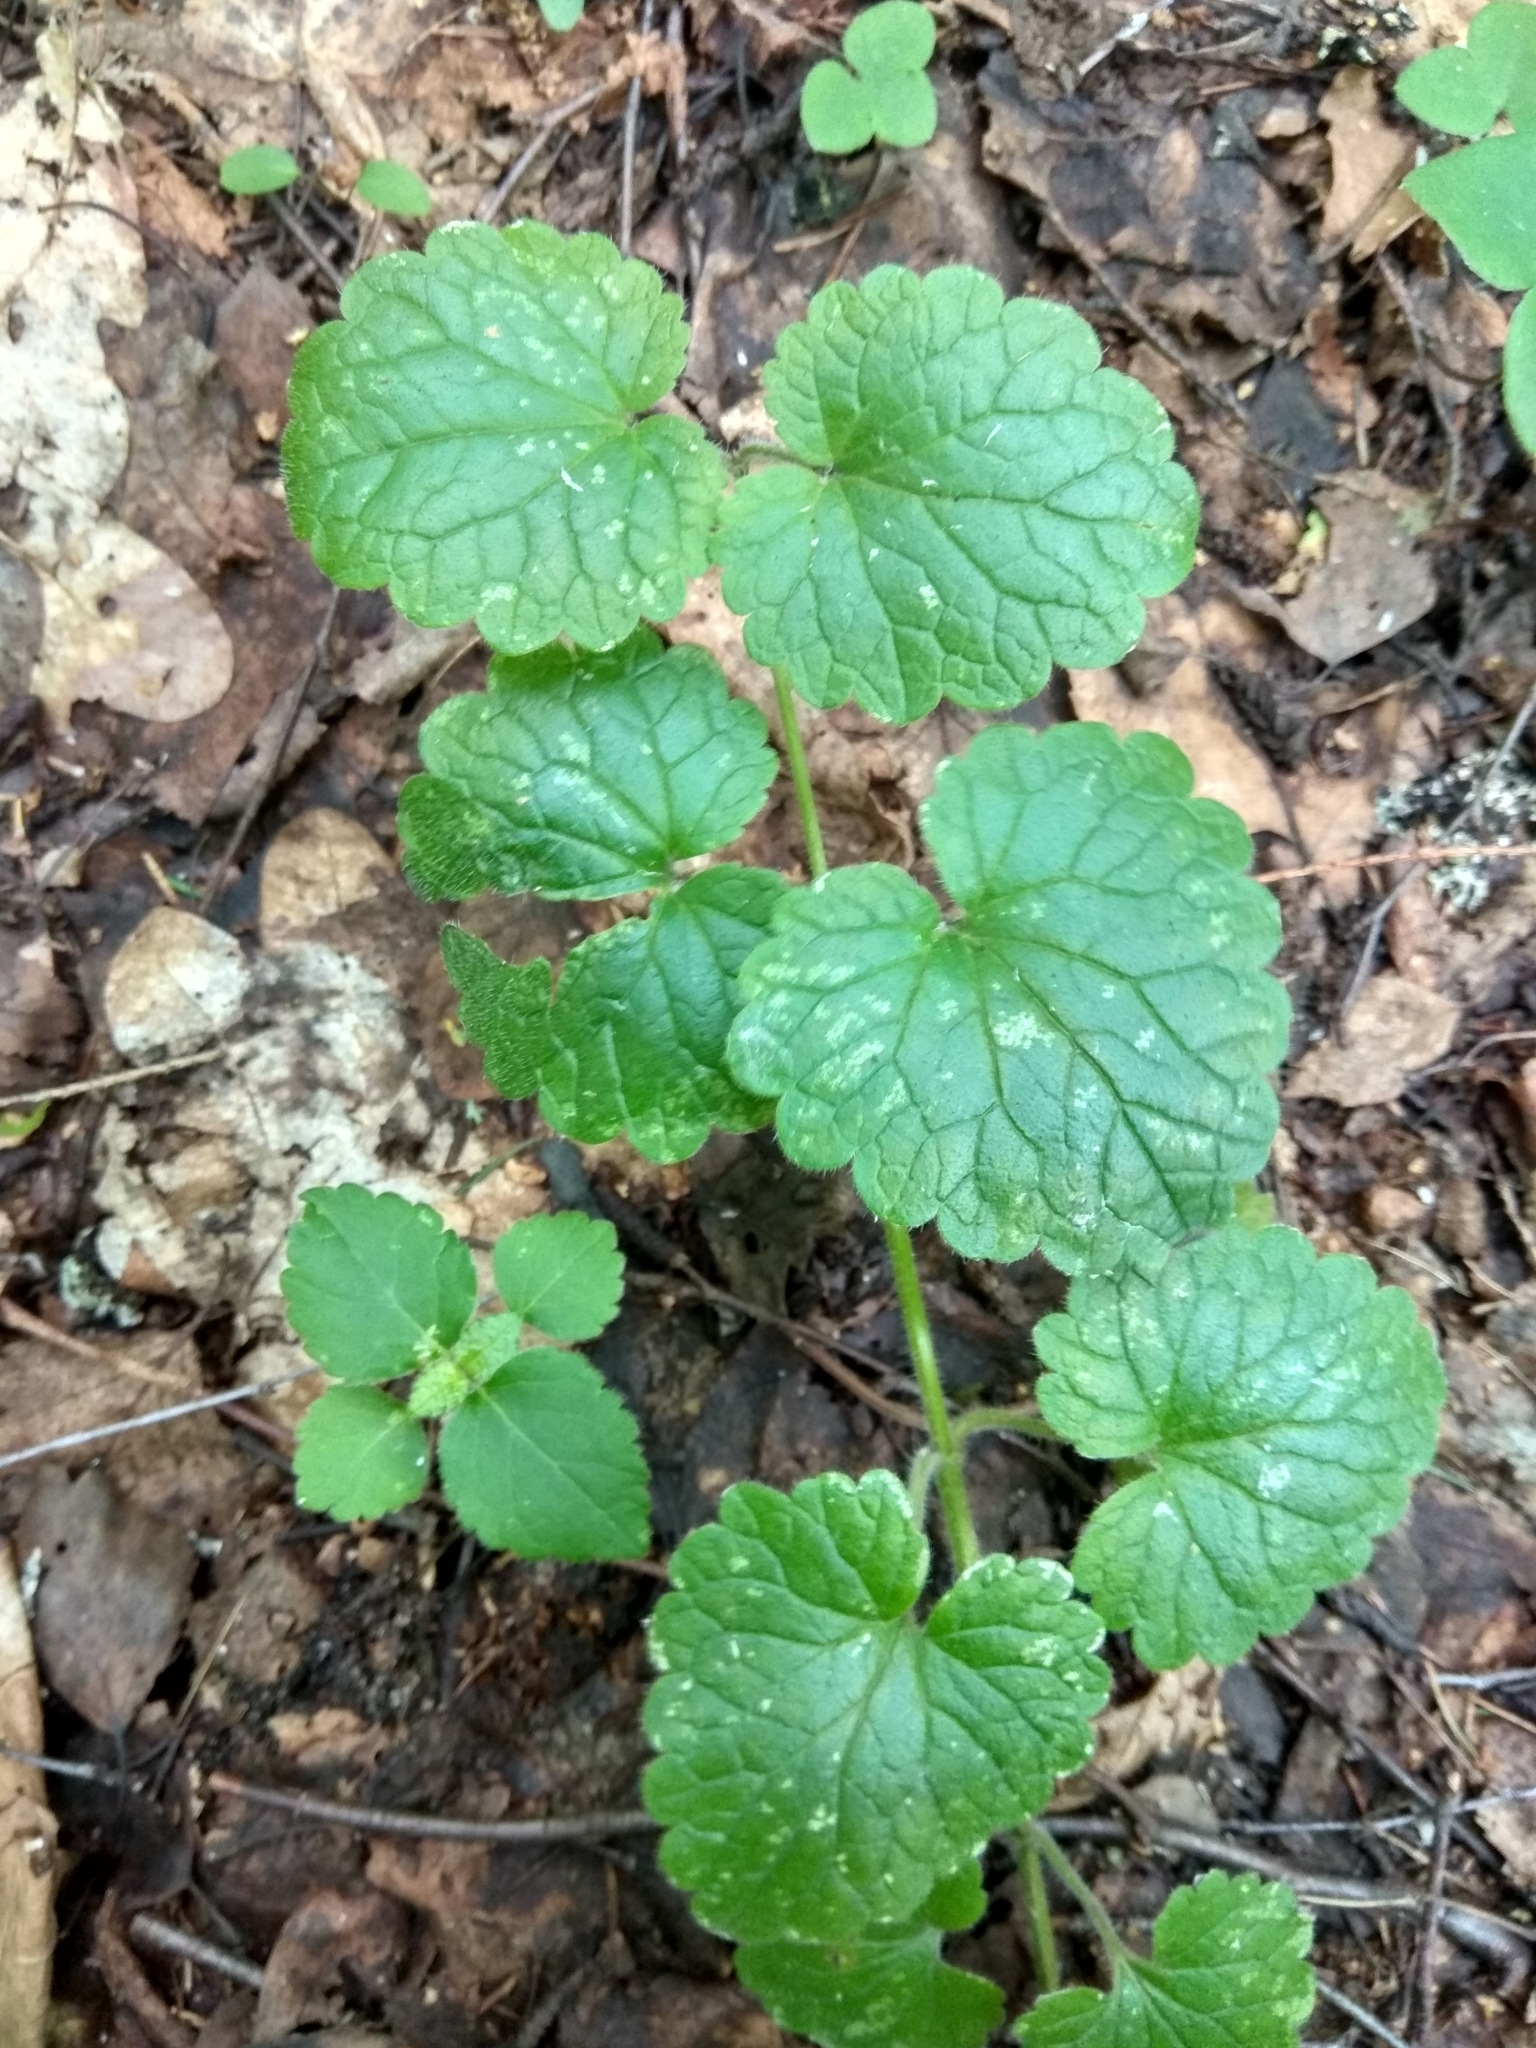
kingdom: Plantae
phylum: Tracheophyta
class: Magnoliopsida
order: Lamiales
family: Lamiaceae
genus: Glechoma
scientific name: Glechoma hederacea
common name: Ground ivy
